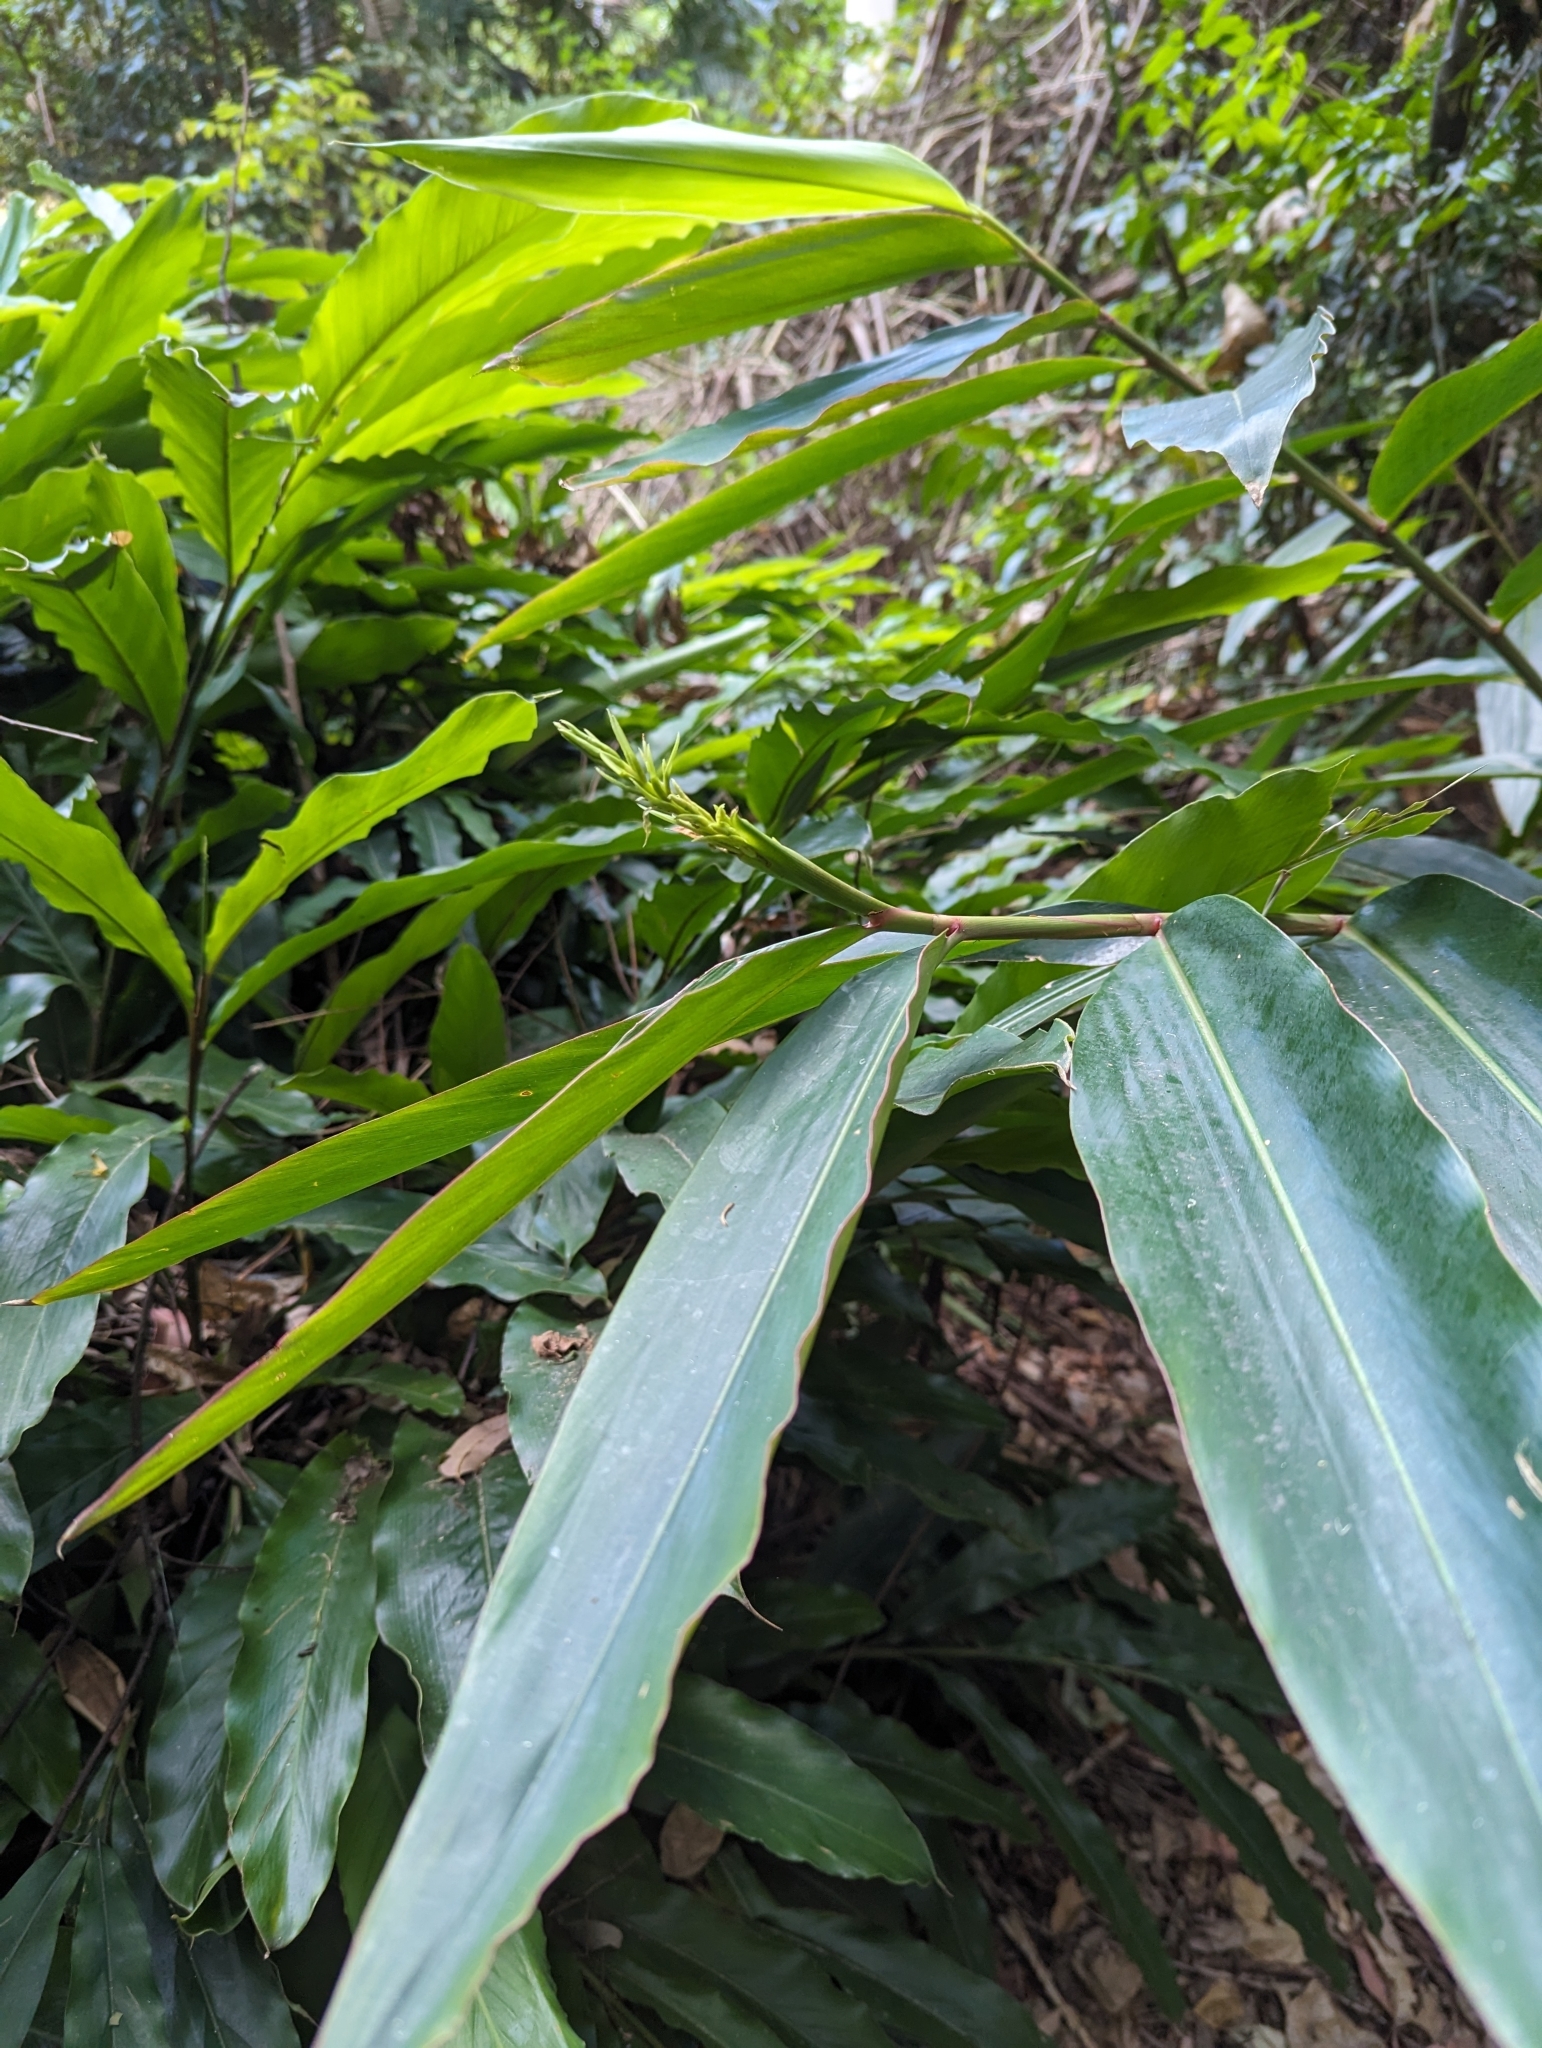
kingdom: Plantae
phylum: Tracheophyta
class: Liliopsida
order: Zingiberales
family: Zingiberaceae
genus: Alpinia
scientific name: Alpinia caerulea
